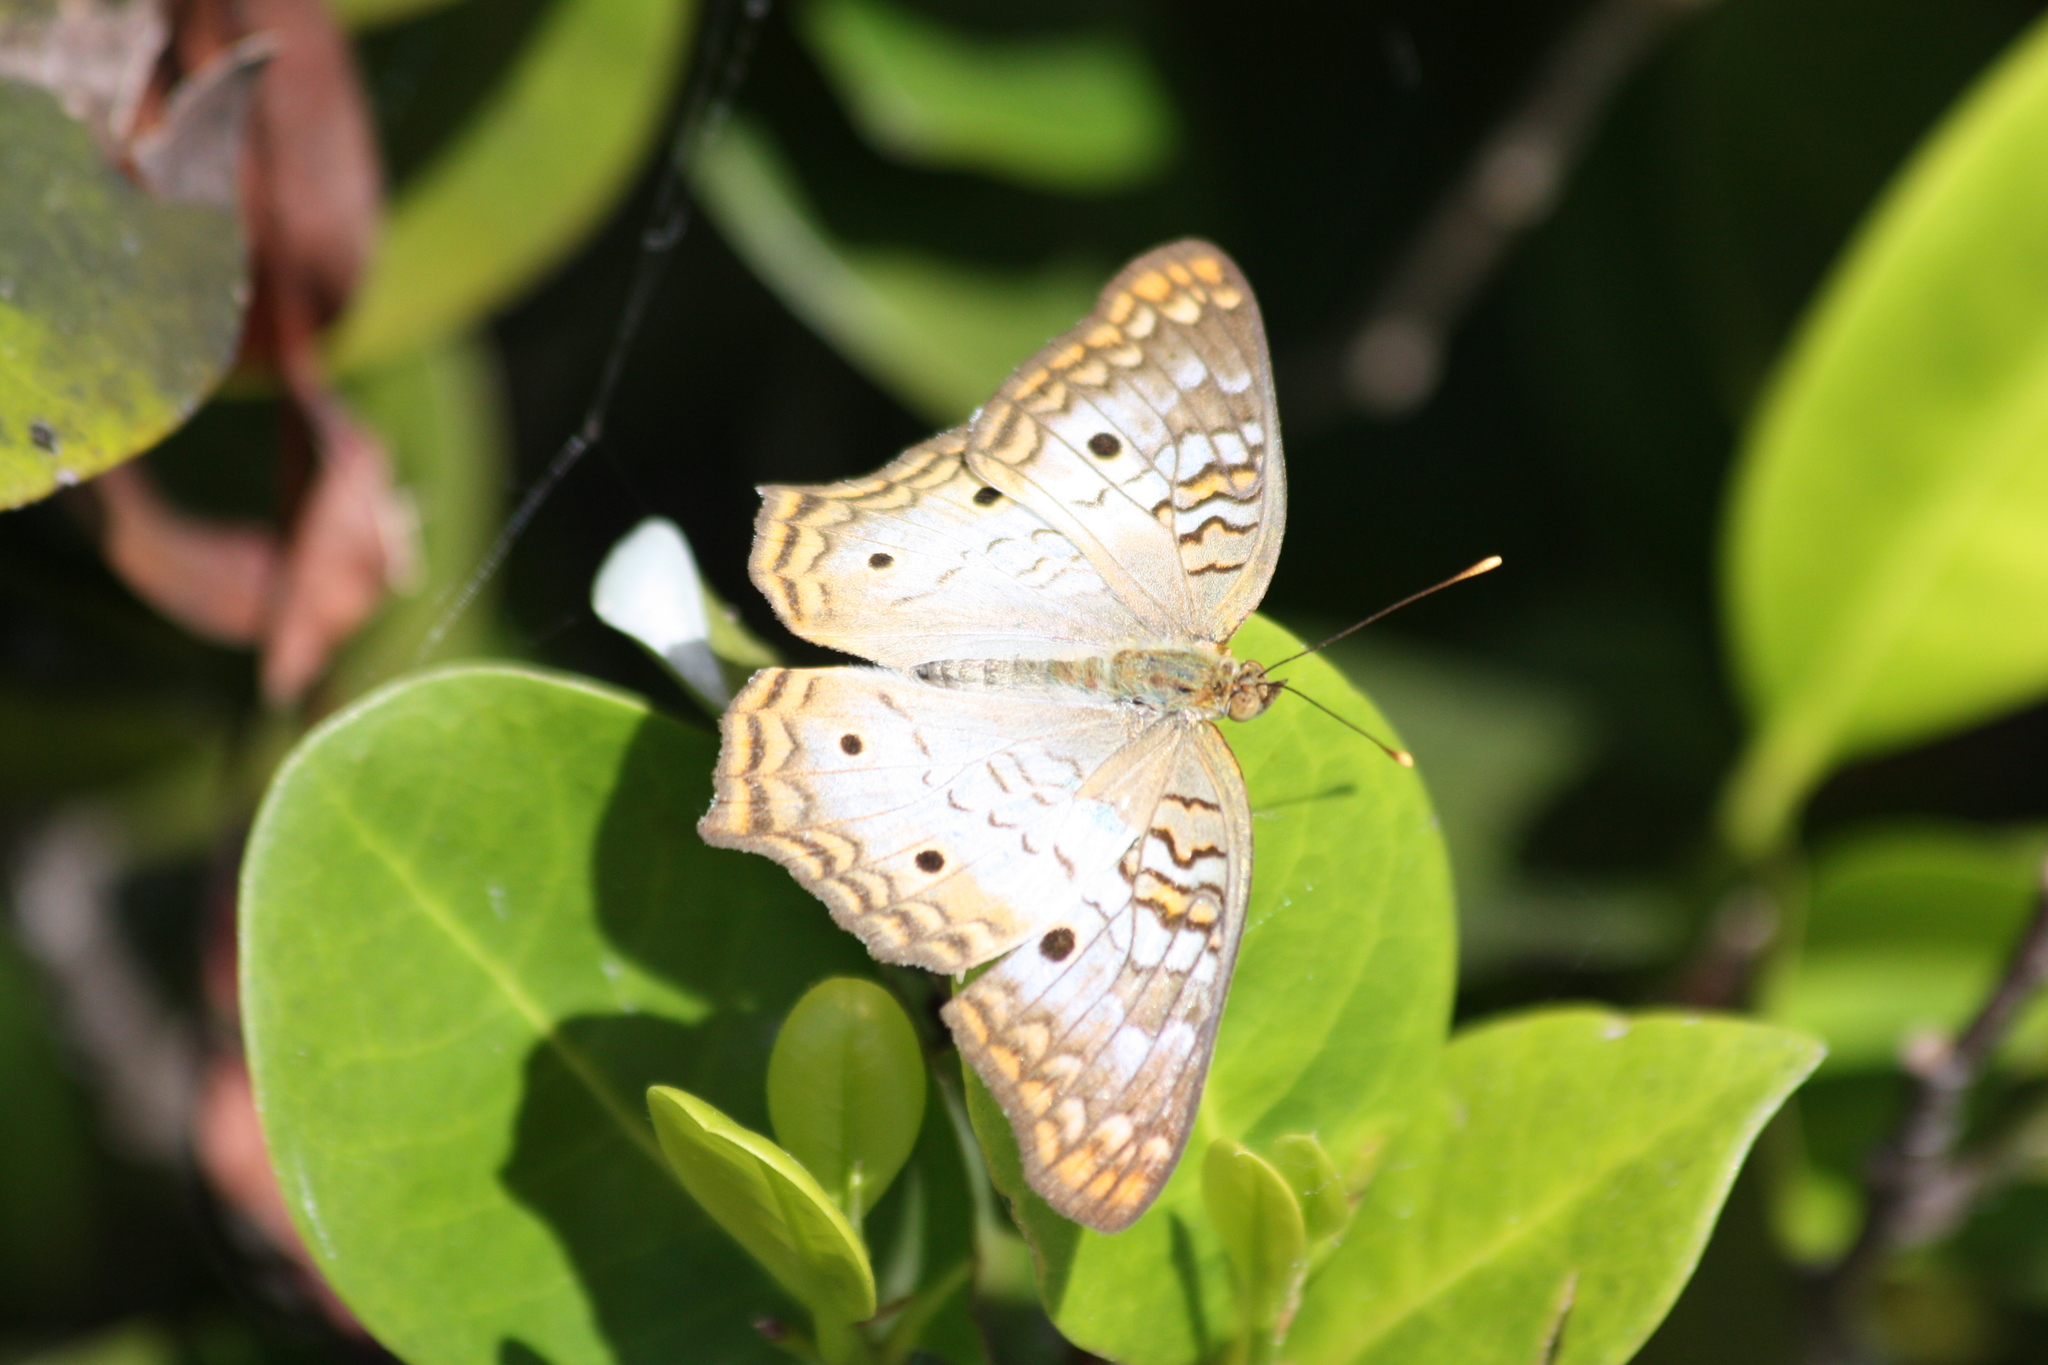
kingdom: Animalia
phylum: Arthropoda
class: Insecta
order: Lepidoptera
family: Nymphalidae
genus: Anartia
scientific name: Anartia jatrophae
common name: White peacock
